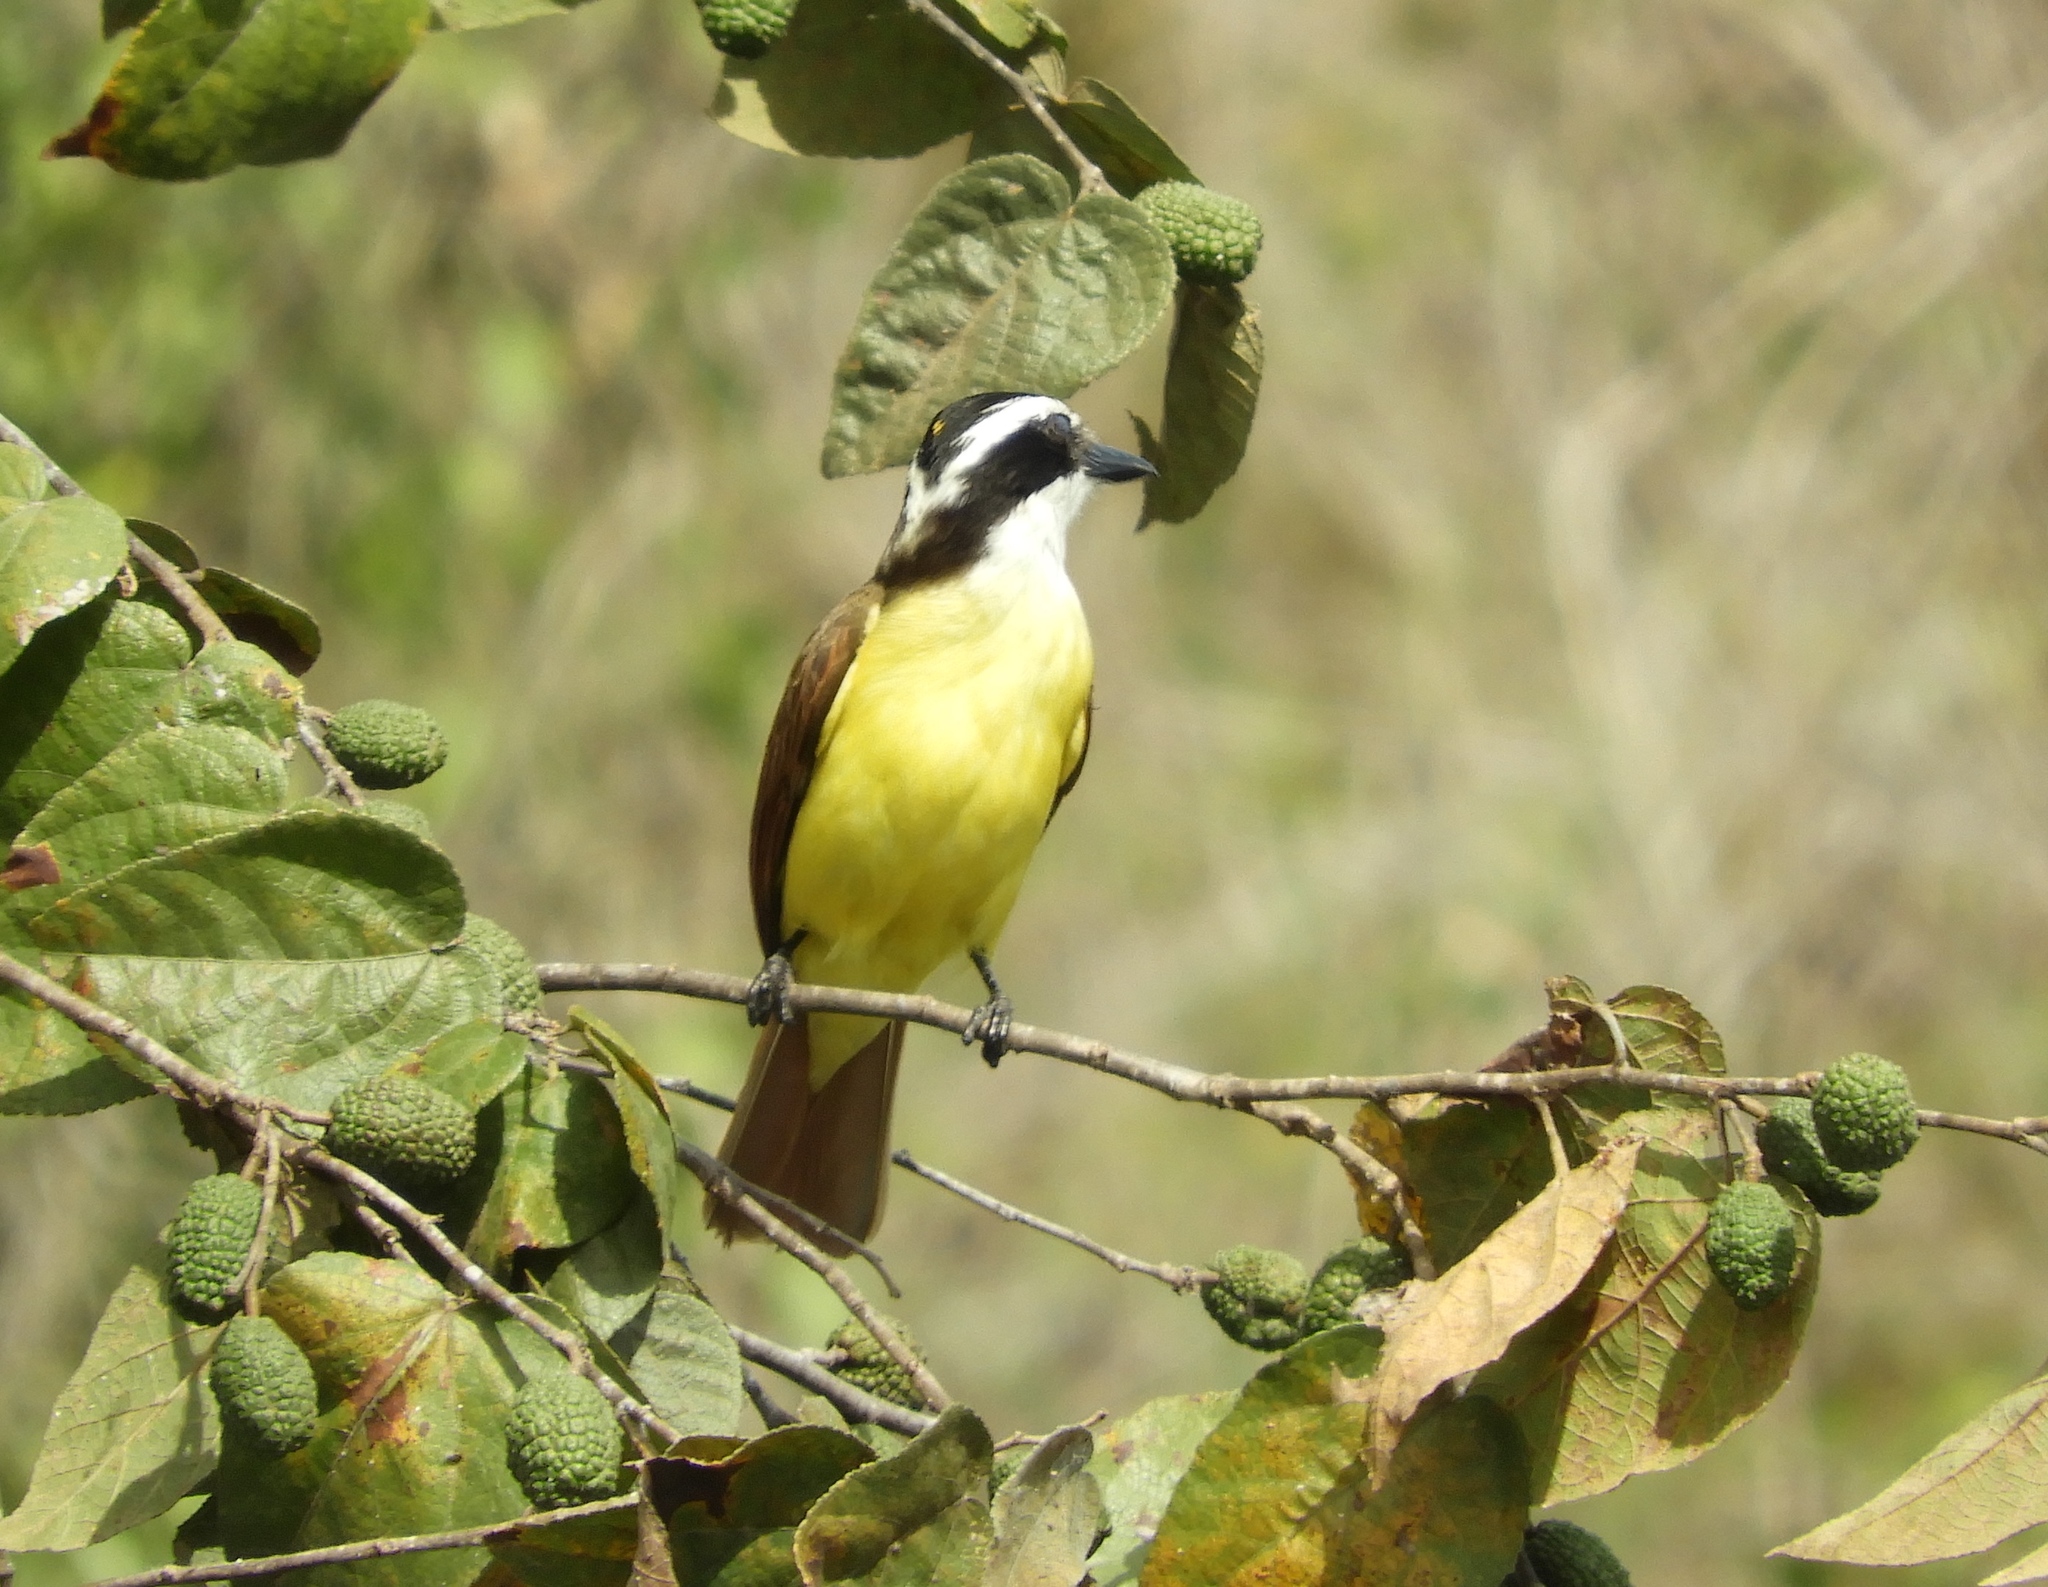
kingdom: Animalia
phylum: Chordata
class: Aves
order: Passeriformes
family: Tyrannidae
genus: Pitangus
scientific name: Pitangus sulphuratus
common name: Great kiskadee
